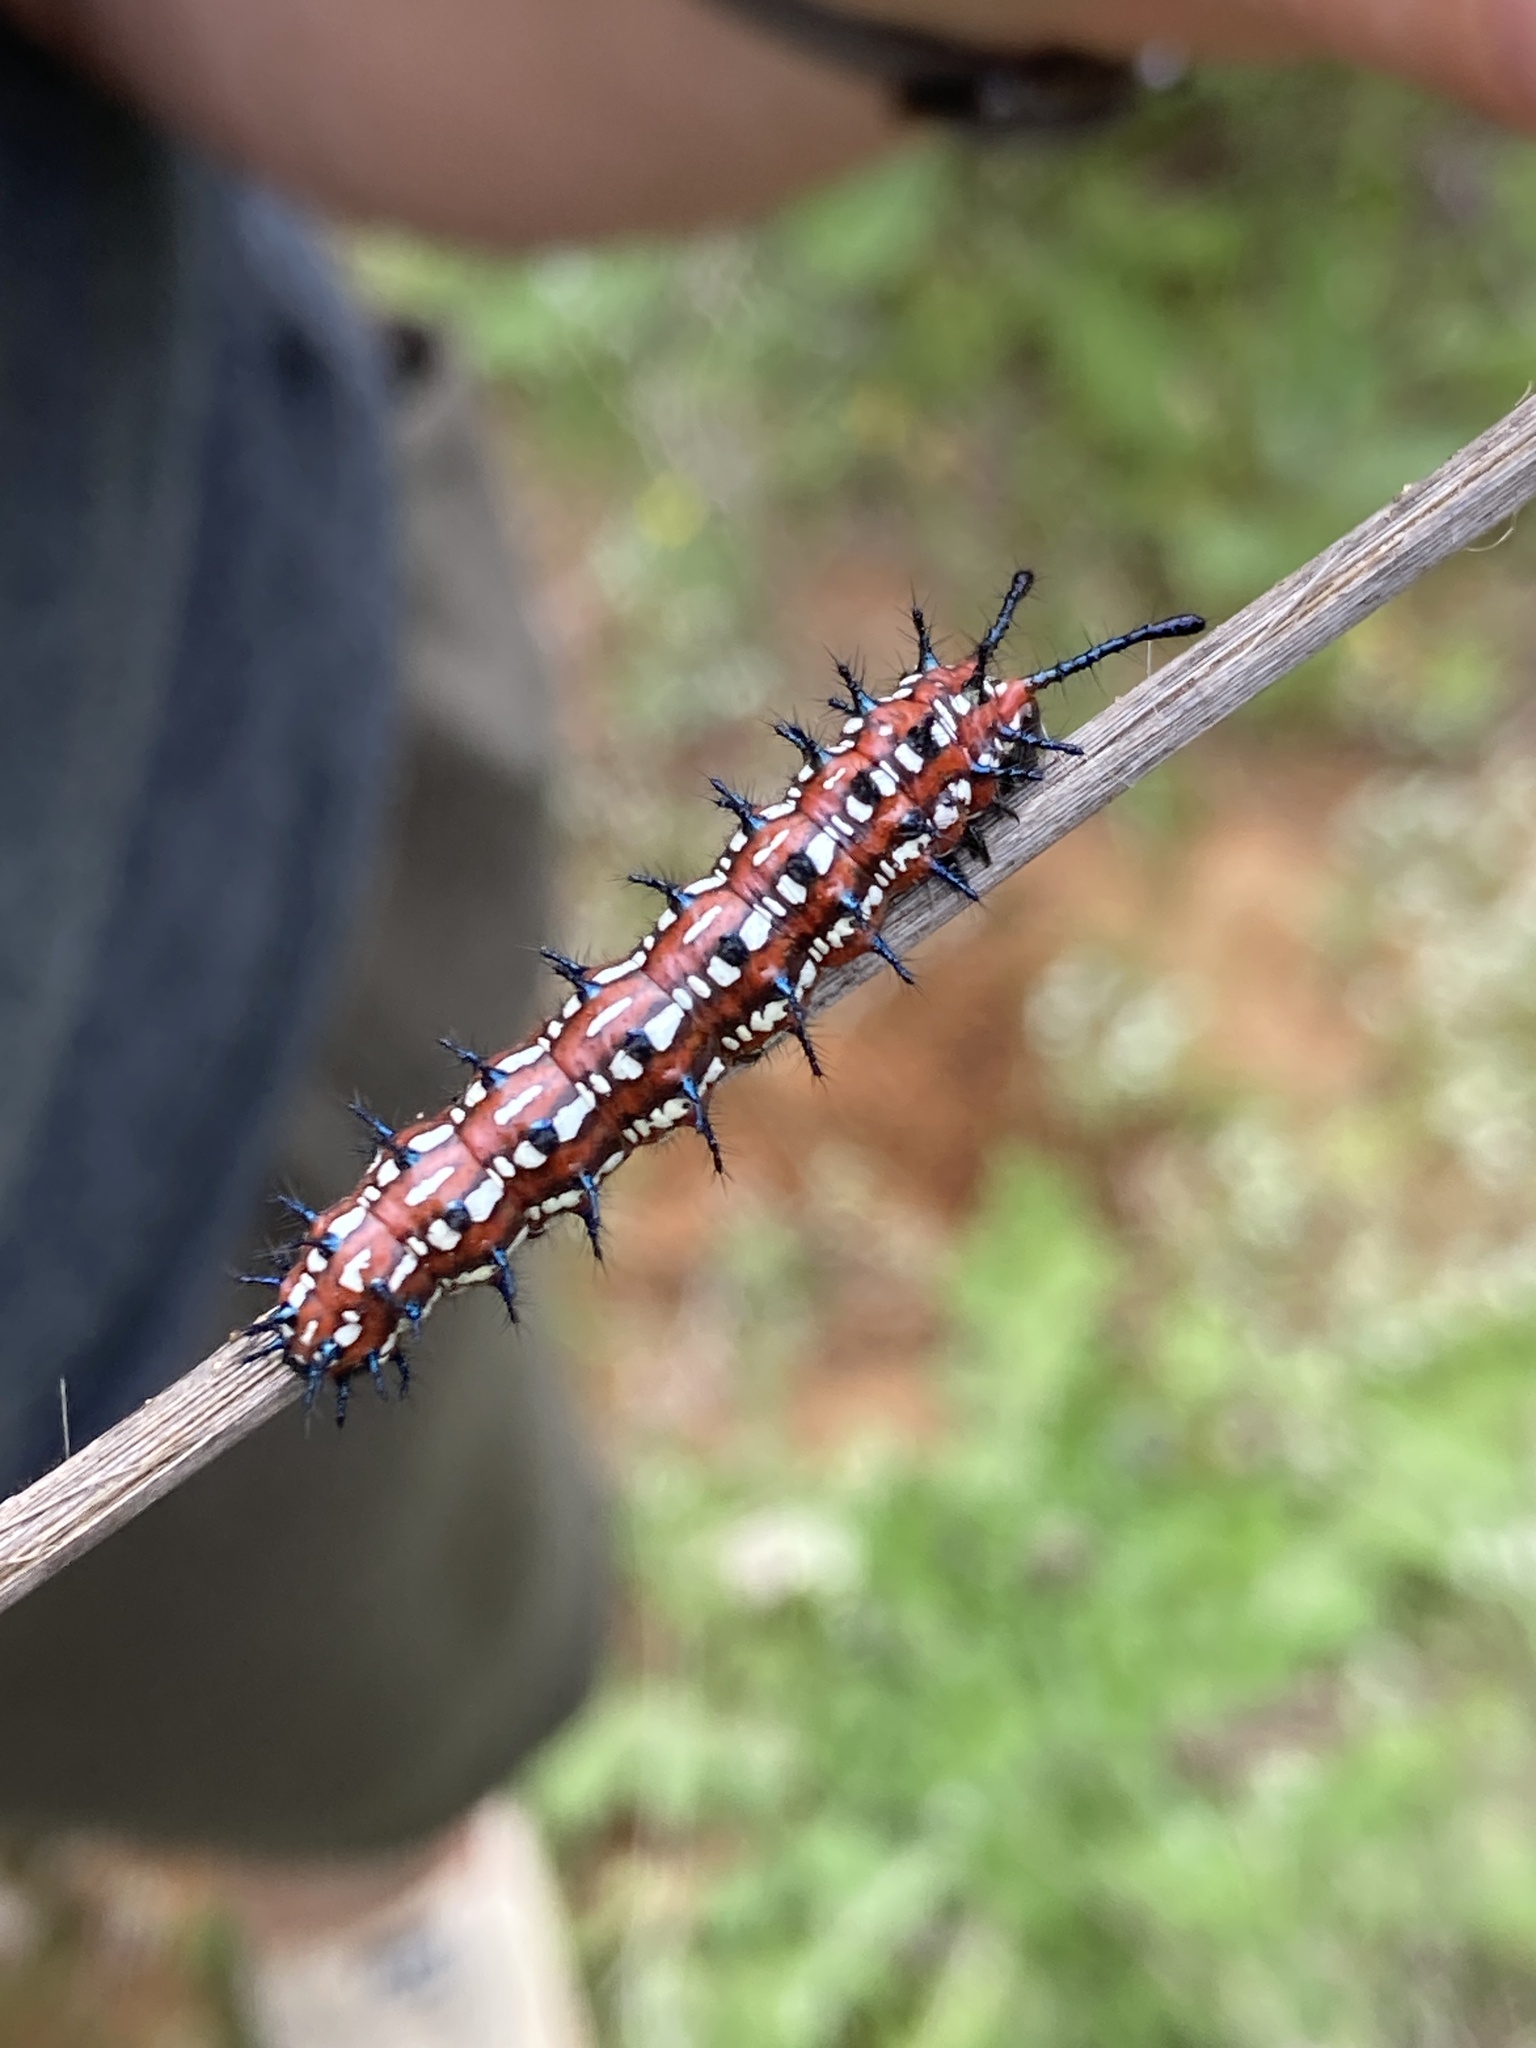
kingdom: Animalia
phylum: Arthropoda
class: Insecta
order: Lepidoptera
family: Nymphalidae
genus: Euptoieta
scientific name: Euptoieta claudia
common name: Variegated fritillary
